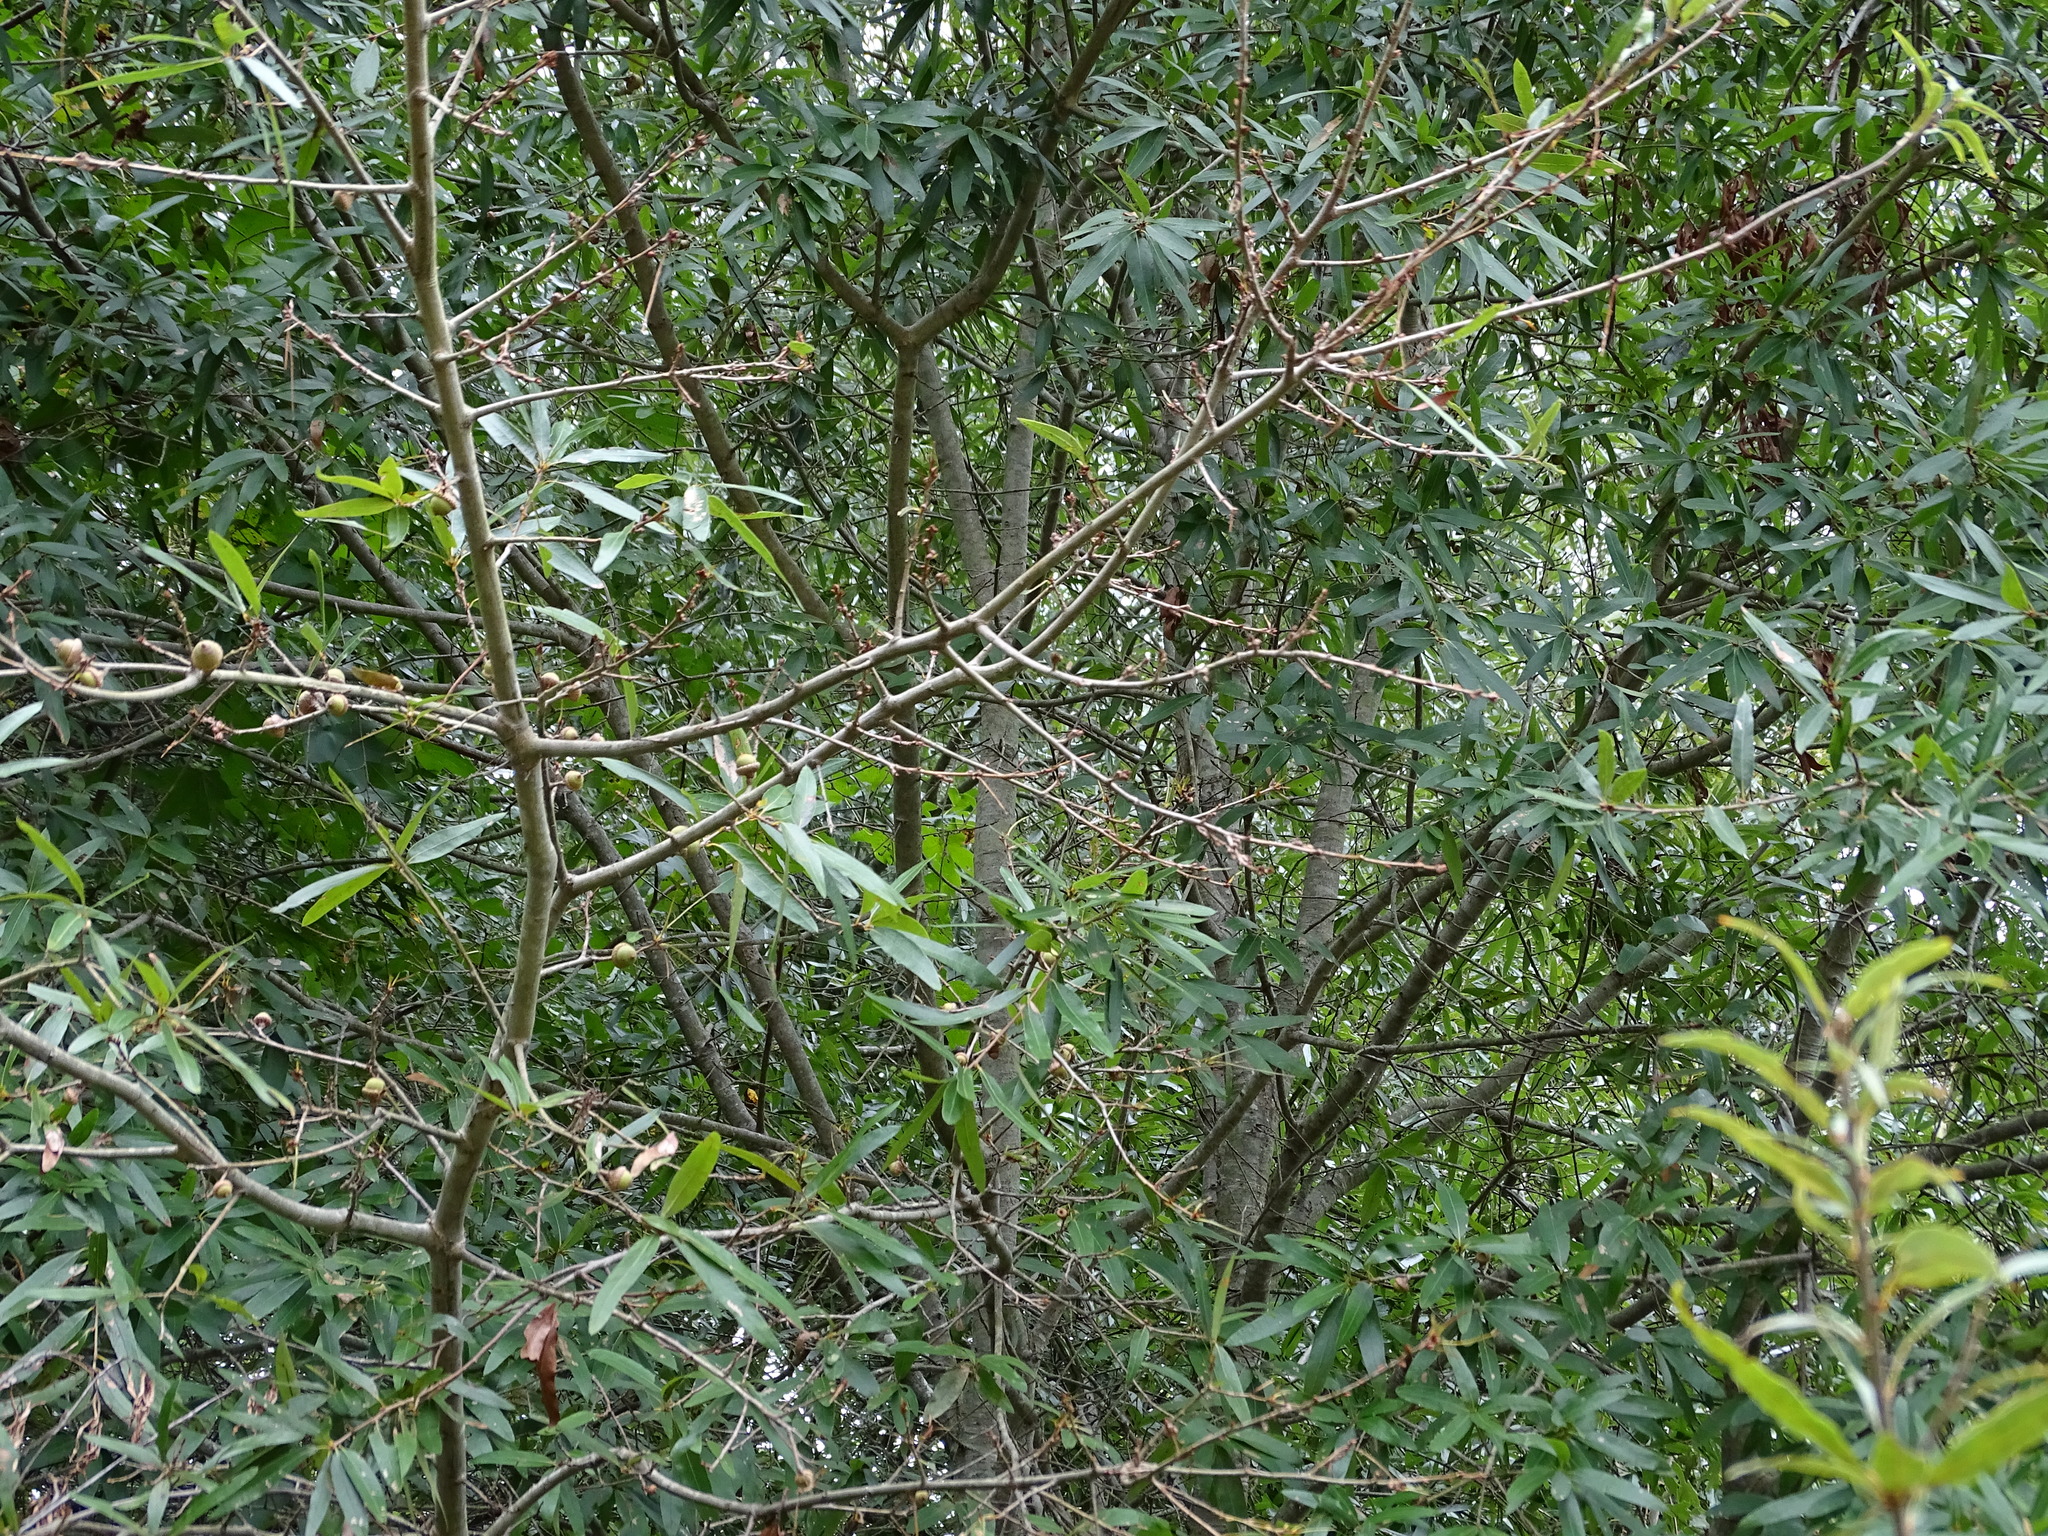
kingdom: Plantae
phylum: Tracheophyta
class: Magnoliopsida
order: Fagales
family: Fagaceae
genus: Quercus
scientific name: Quercus phellos
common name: Willow oak
